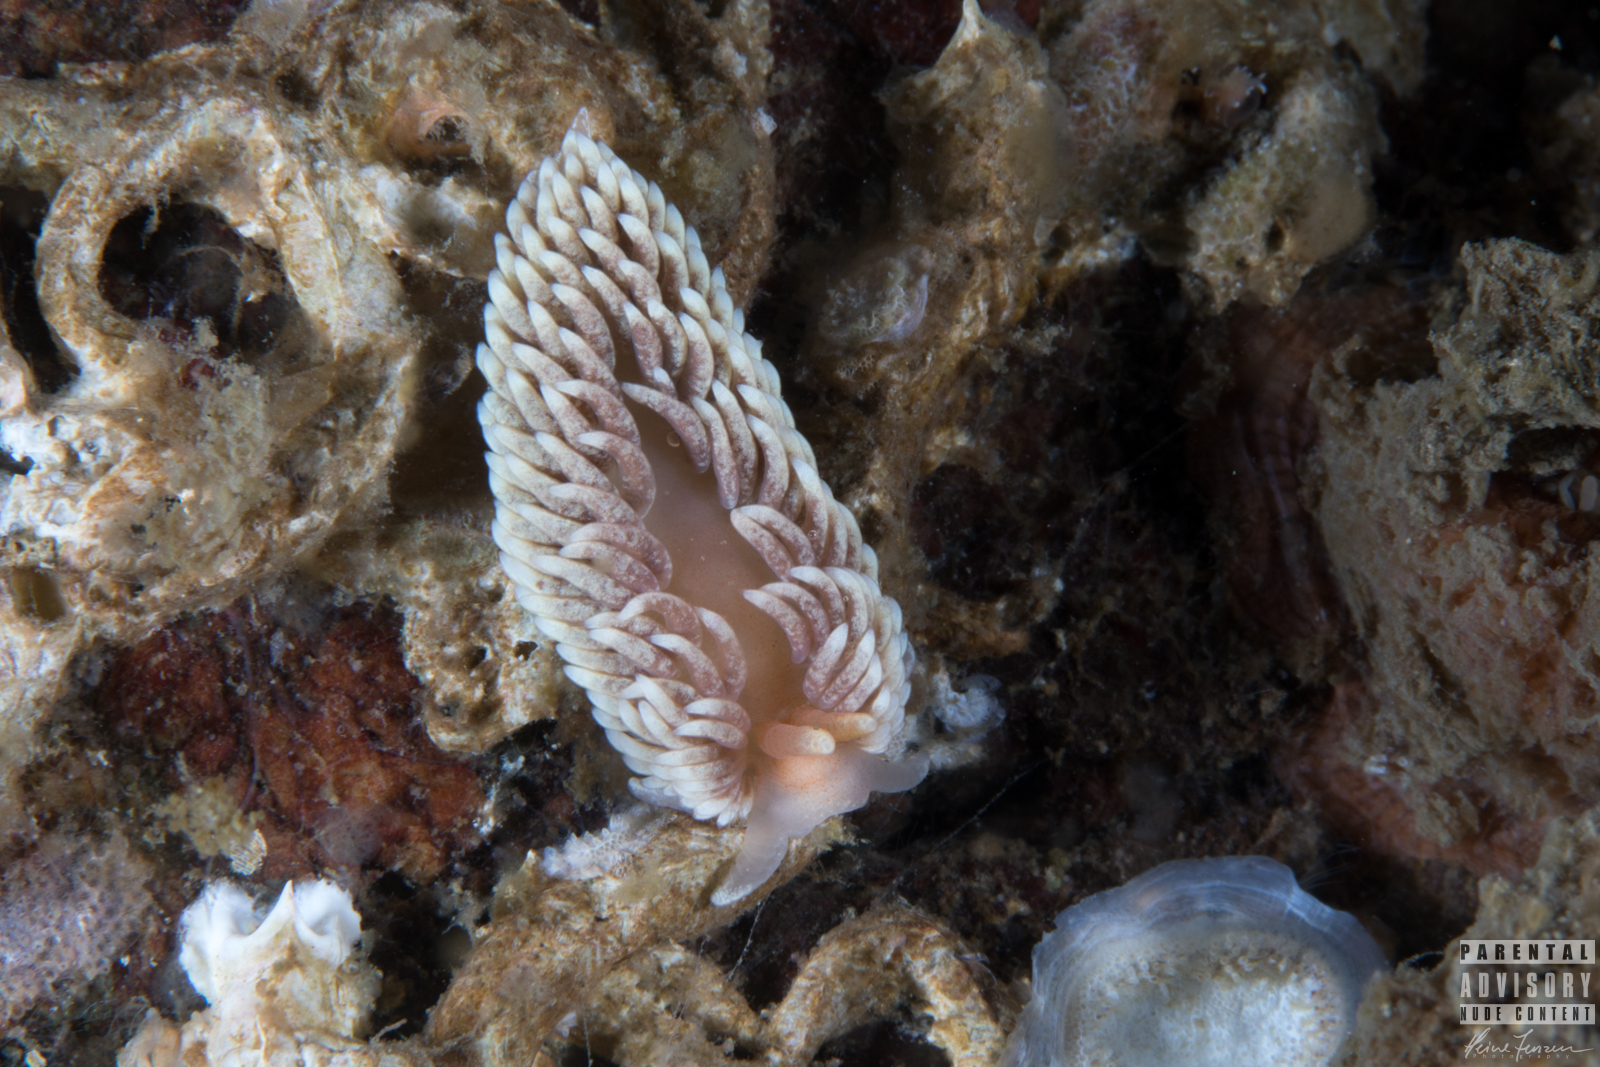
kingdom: Animalia
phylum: Mollusca
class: Gastropoda
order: Nudibranchia
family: Aeolidiidae
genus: Aeolidiella
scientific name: Aeolidiella glauca
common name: Orange-brown aeolid
